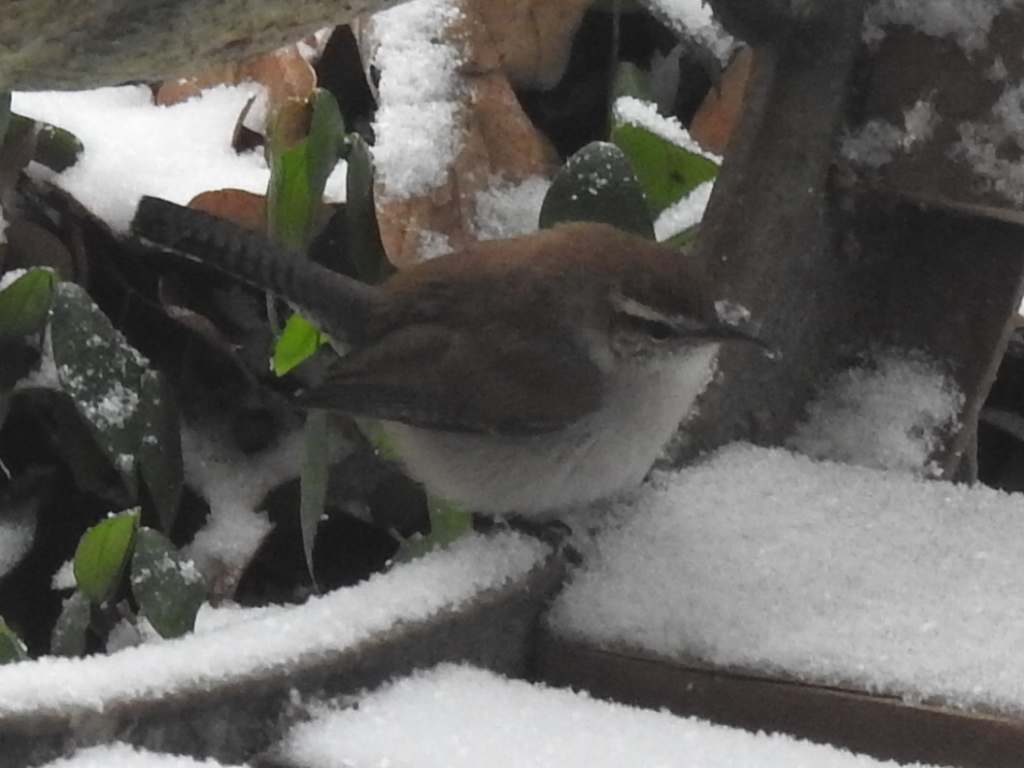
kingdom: Animalia
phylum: Chordata
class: Aves
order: Passeriformes
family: Troglodytidae
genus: Thryomanes
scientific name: Thryomanes bewickii
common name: Bewick's wren
